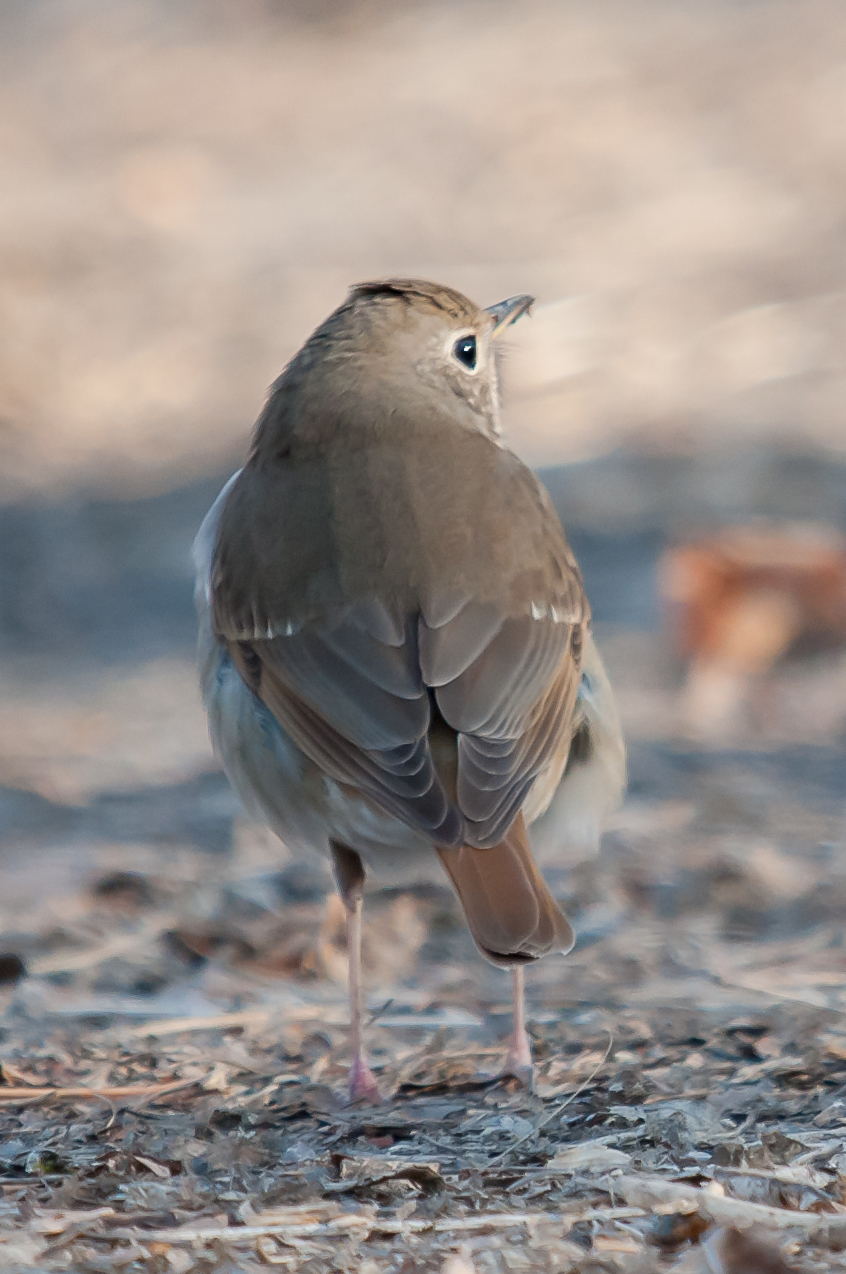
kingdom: Animalia
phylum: Chordata
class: Aves
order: Passeriformes
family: Turdidae
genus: Catharus
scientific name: Catharus guttatus
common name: Hermit thrush
